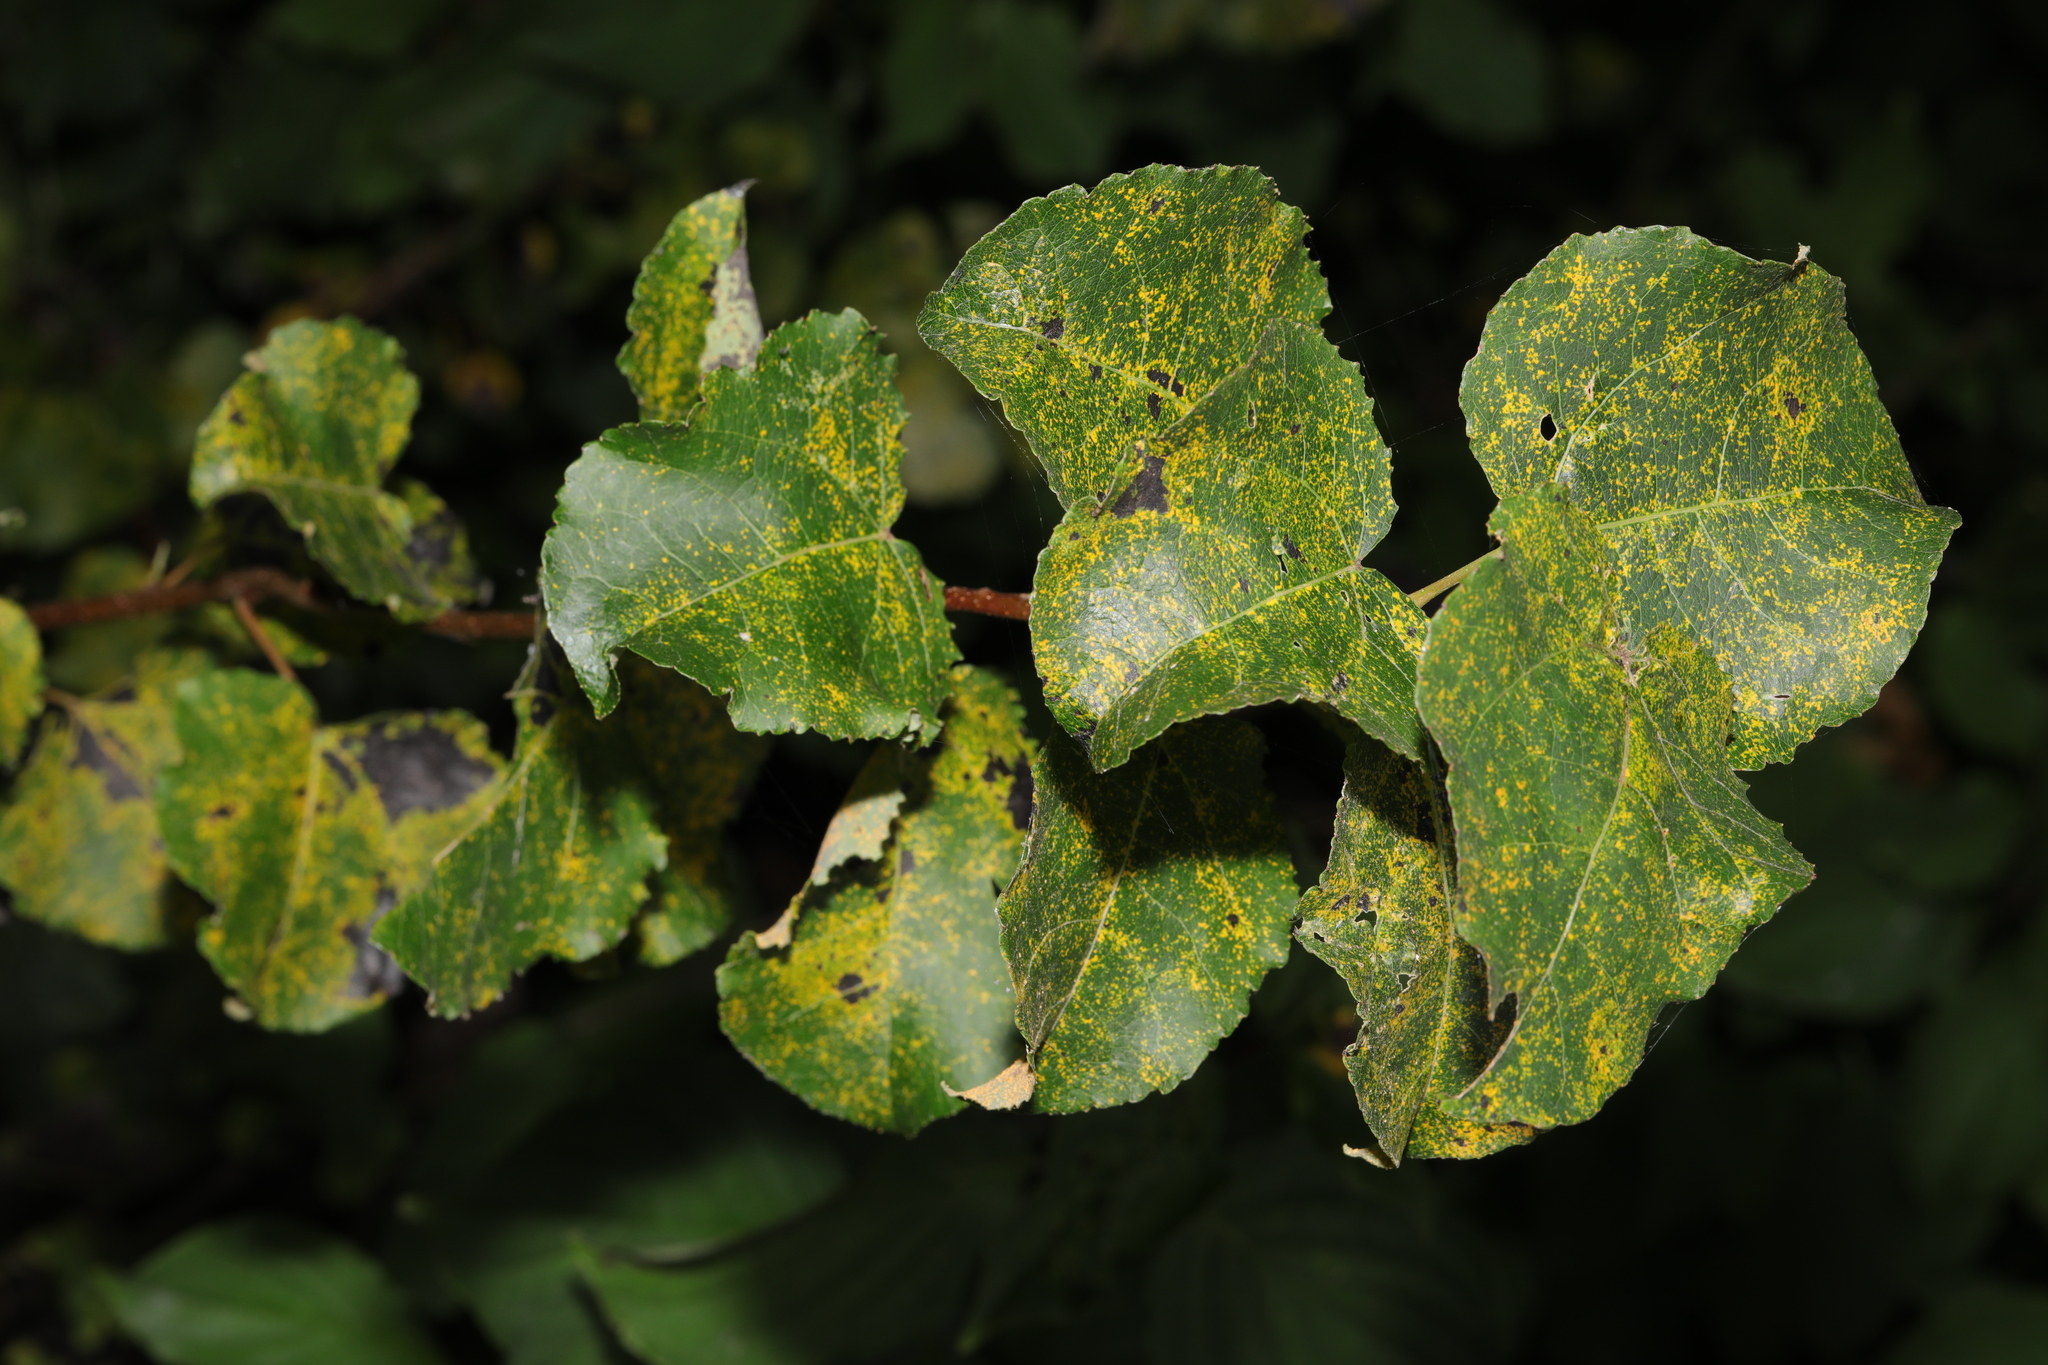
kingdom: Plantae
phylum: Tracheophyta
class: Magnoliopsida
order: Malpighiales
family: Salicaceae
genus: Populus
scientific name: Populus tremula
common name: European aspen
